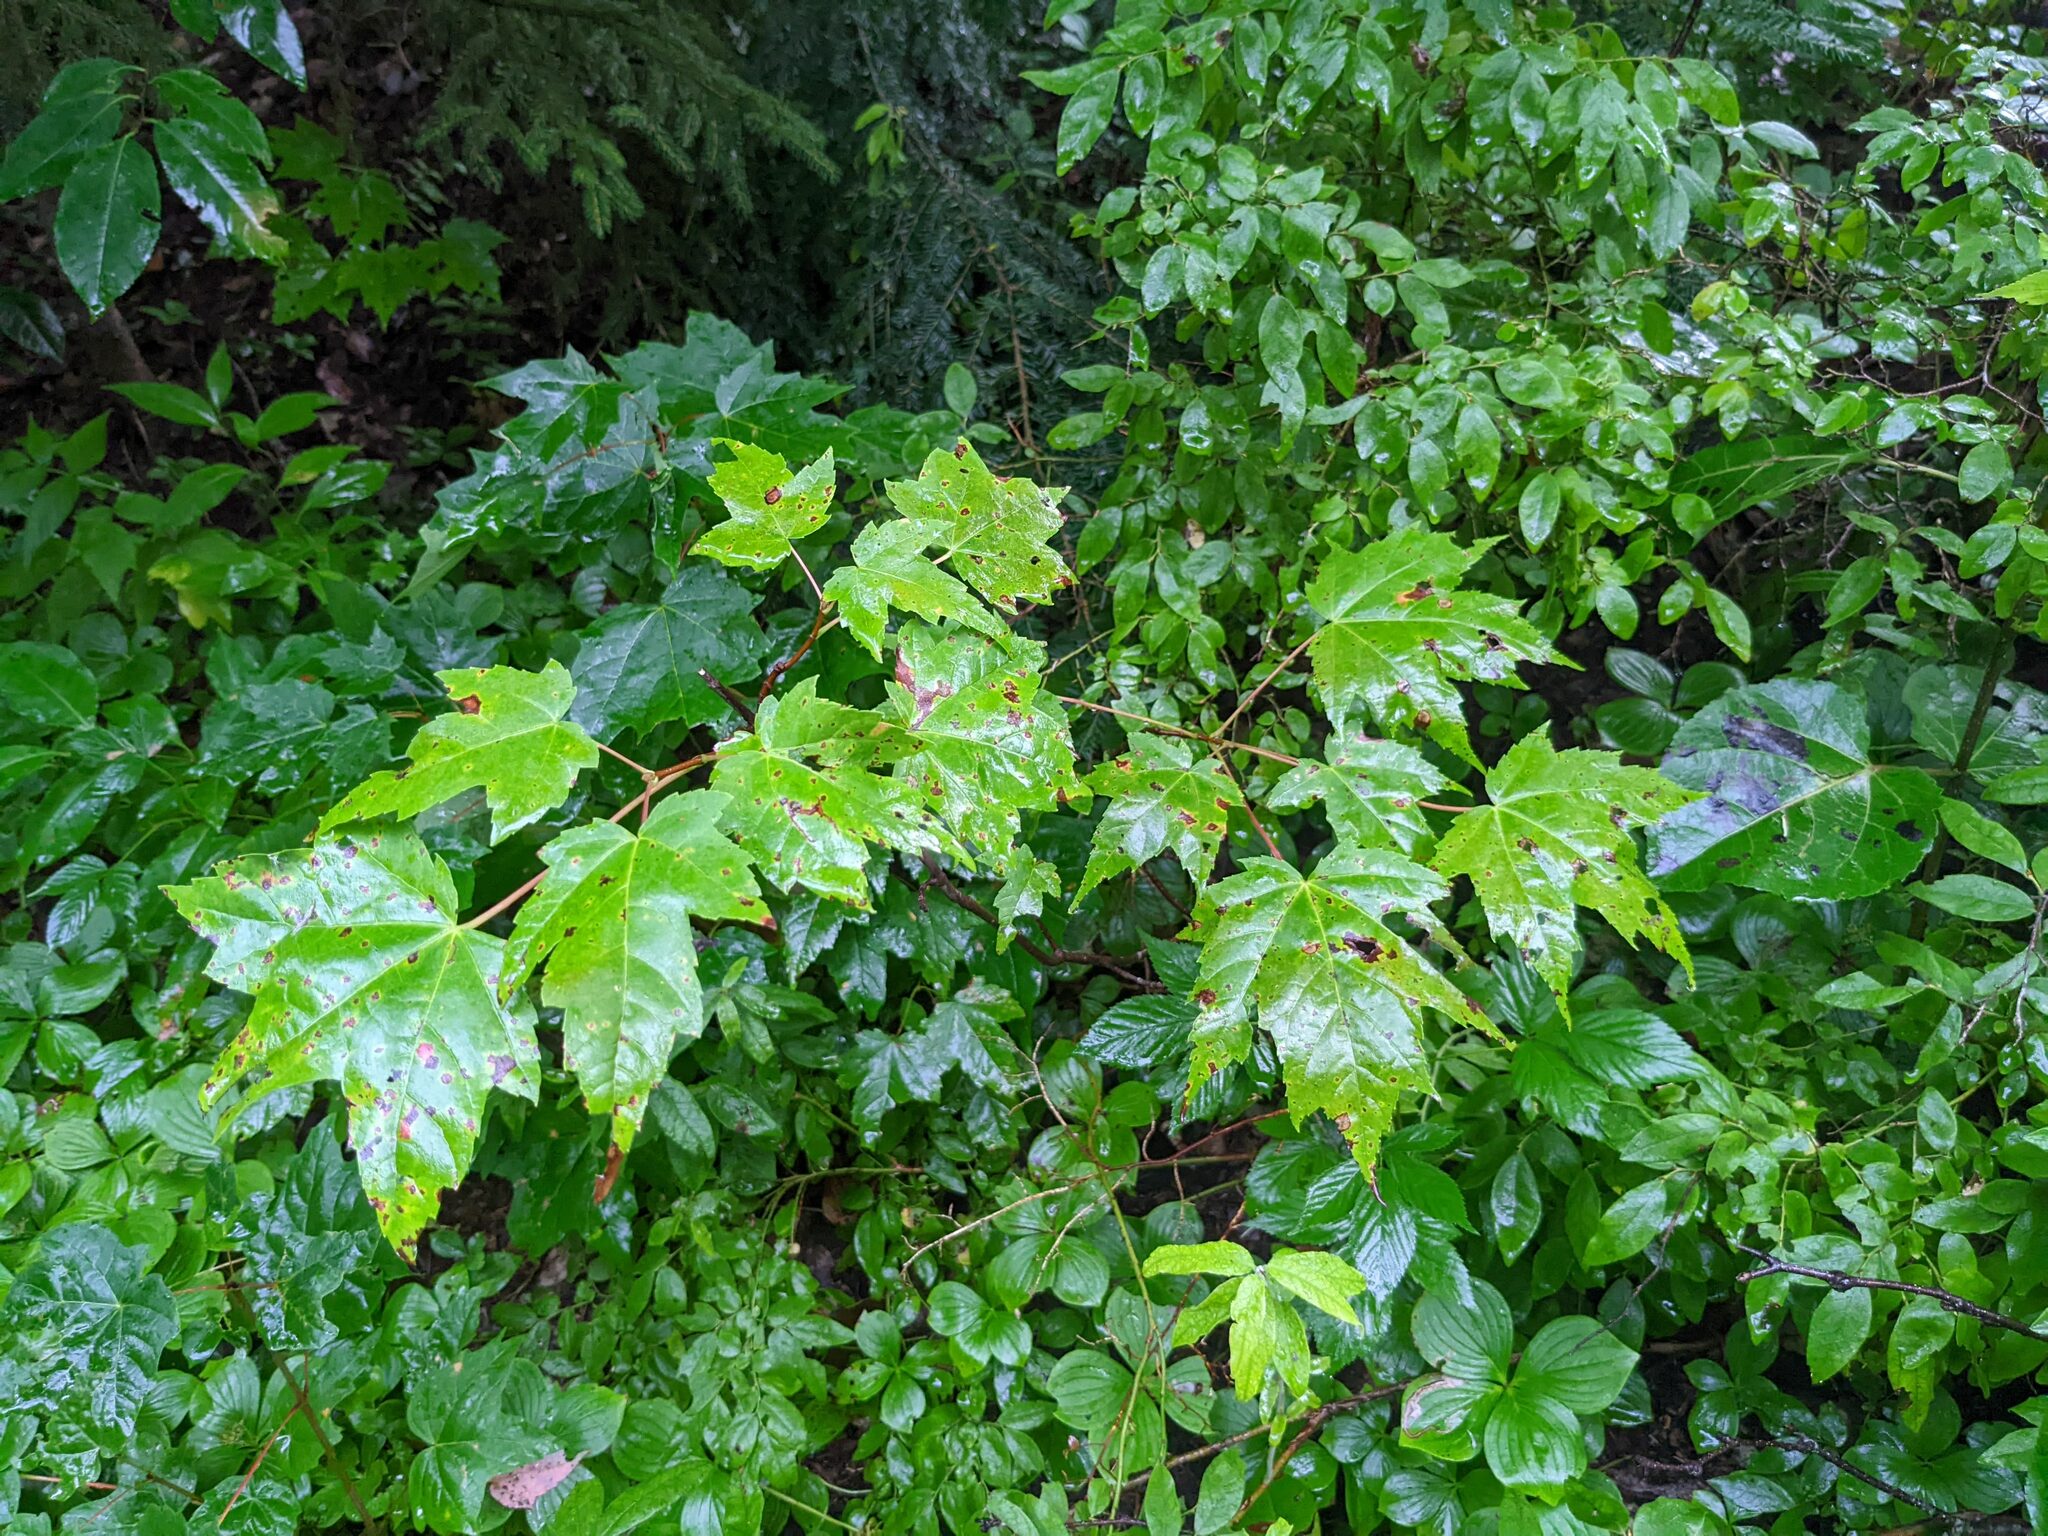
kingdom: Plantae
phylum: Tracheophyta
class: Magnoliopsida
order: Sapindales
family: Sapindaceae
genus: Acer
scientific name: Acer rubrum
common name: Red maple
